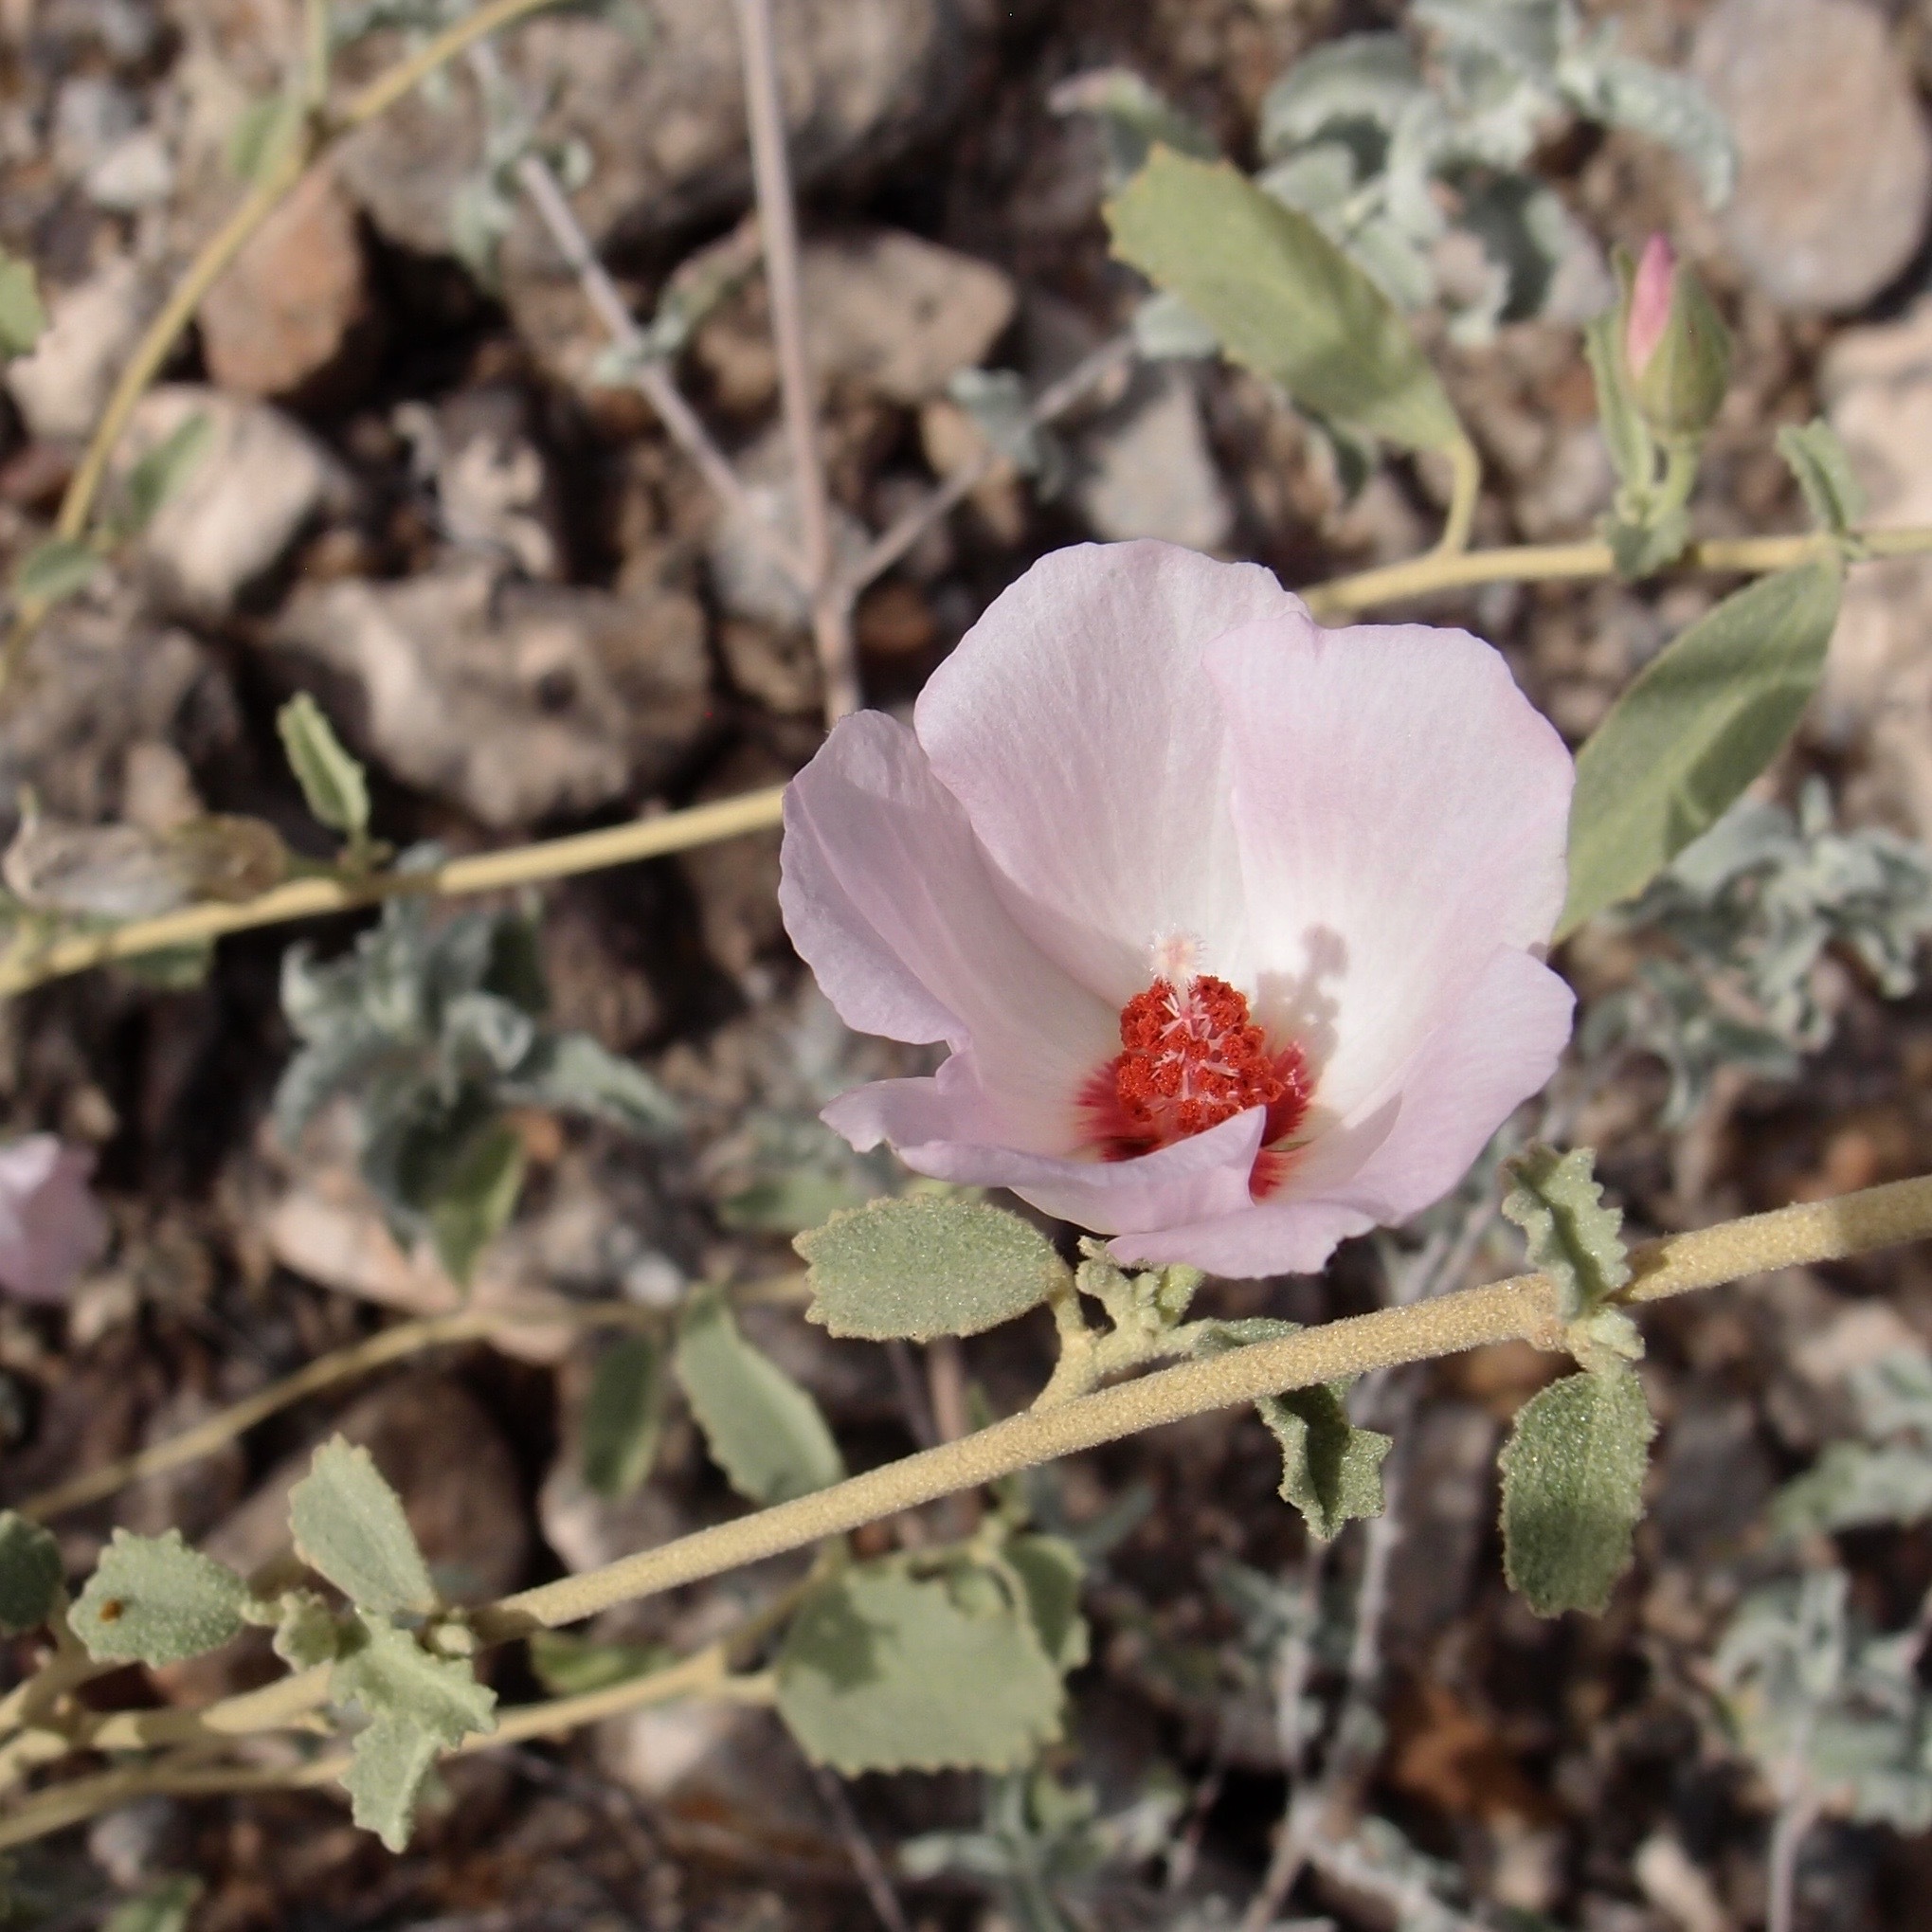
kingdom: Plantae
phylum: Tracheophyta
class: Magnoliopsida
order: Malvales
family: Malvaceae
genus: Hibiscus
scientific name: Hibiscus denudatus
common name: Paleface
